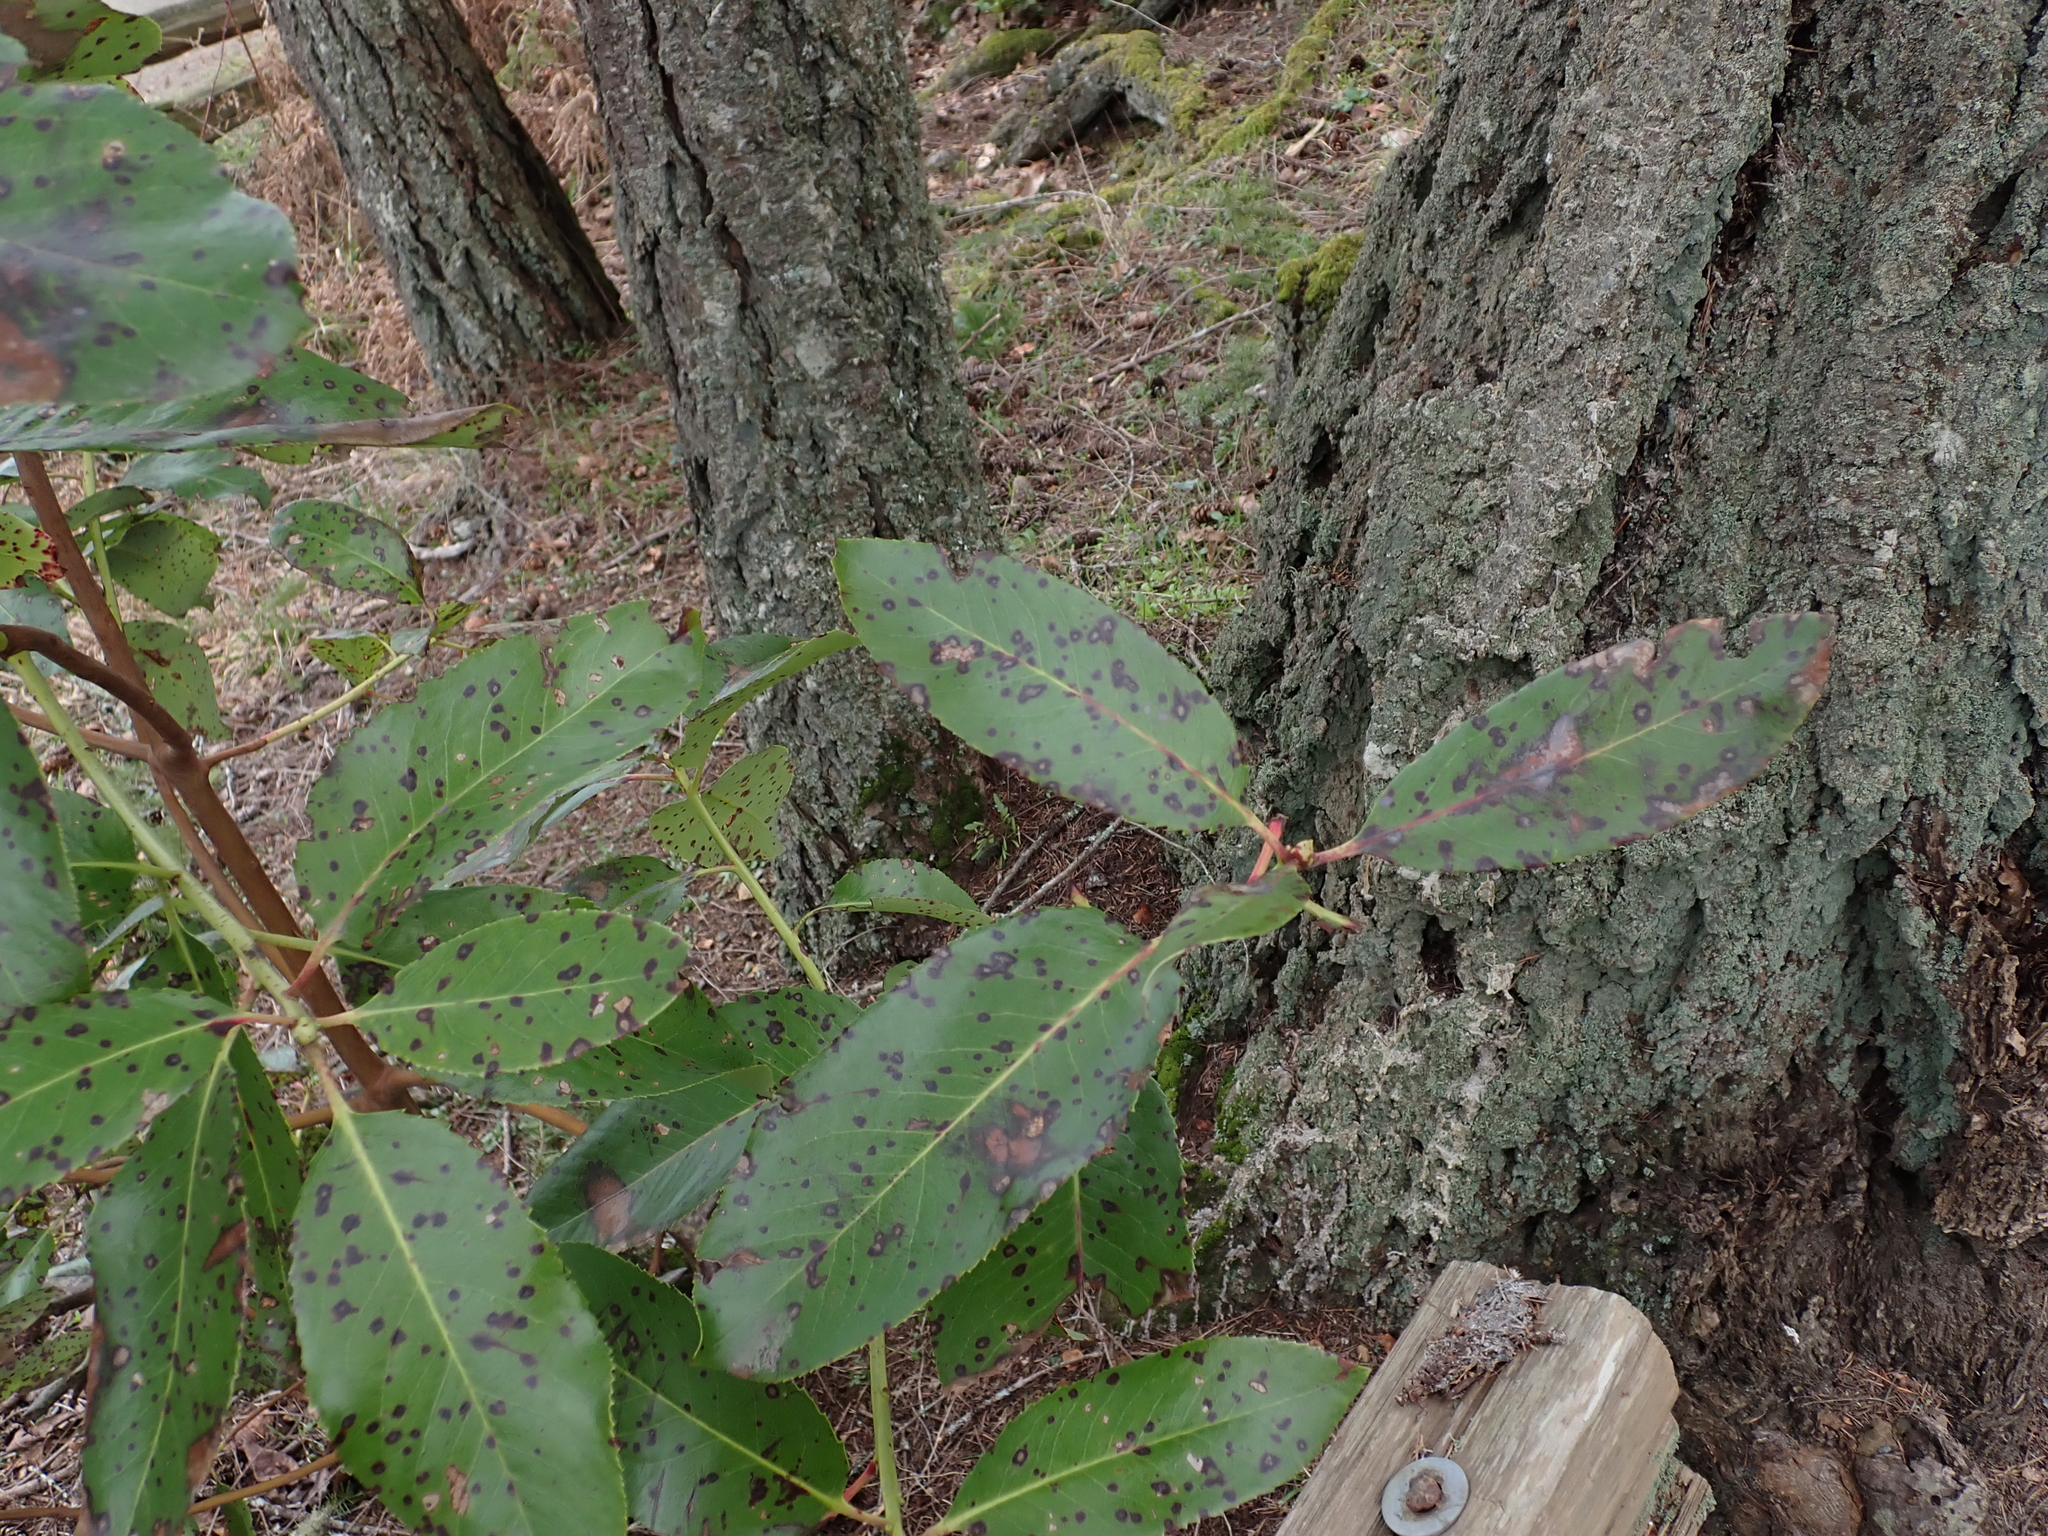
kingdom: Plantae
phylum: Tracheophyta
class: Magnoliopsida
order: Ericales
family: Ericaceae
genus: Arbutus
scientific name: Arbutus menziesii
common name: Pacific madrone
